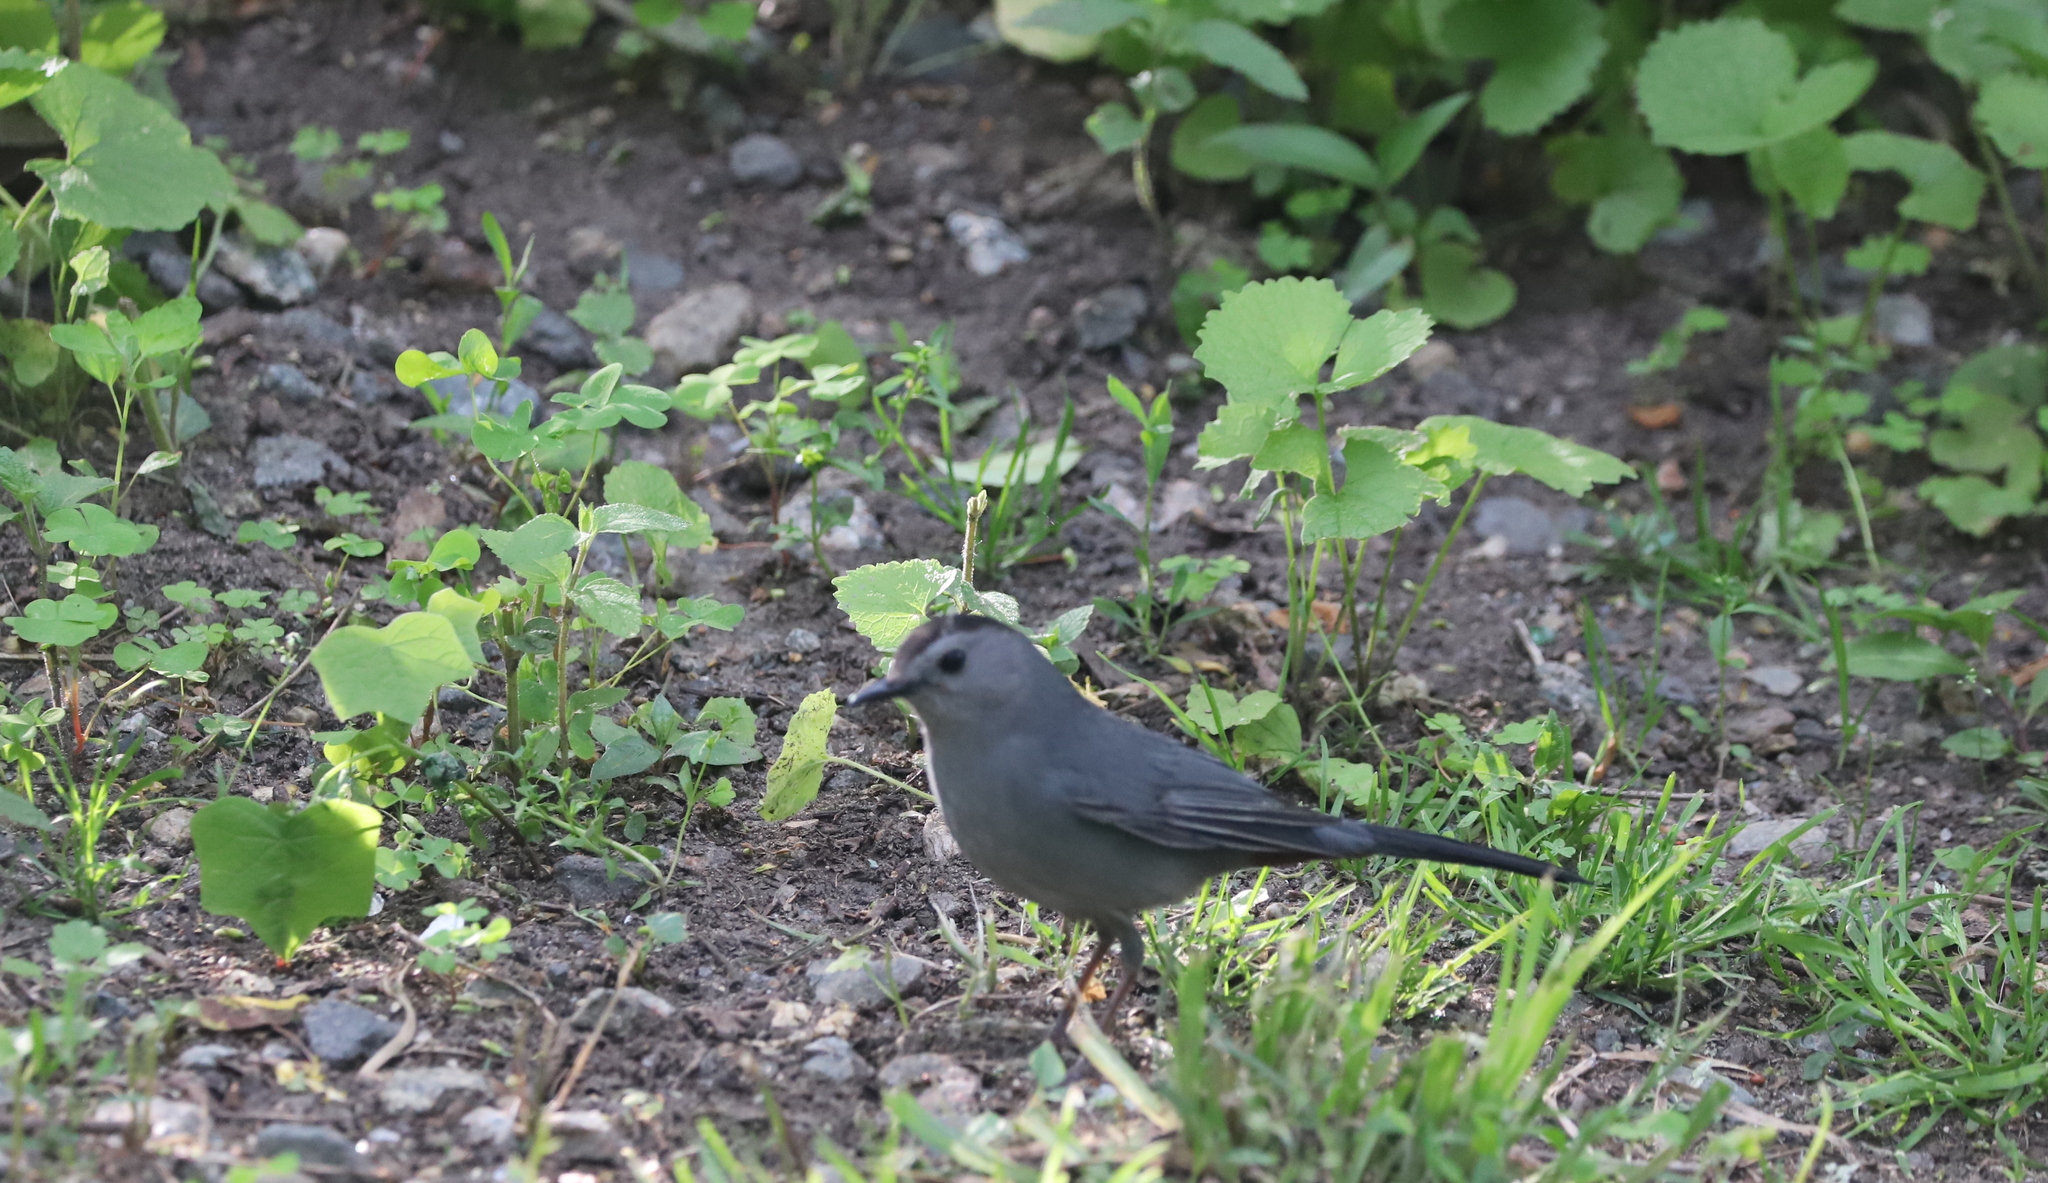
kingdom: Animalia
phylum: Chordata
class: Aves
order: Passeriformes
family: Mimidae
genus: Dumetella
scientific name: Dumetella carolinensis
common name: Gray catbird
